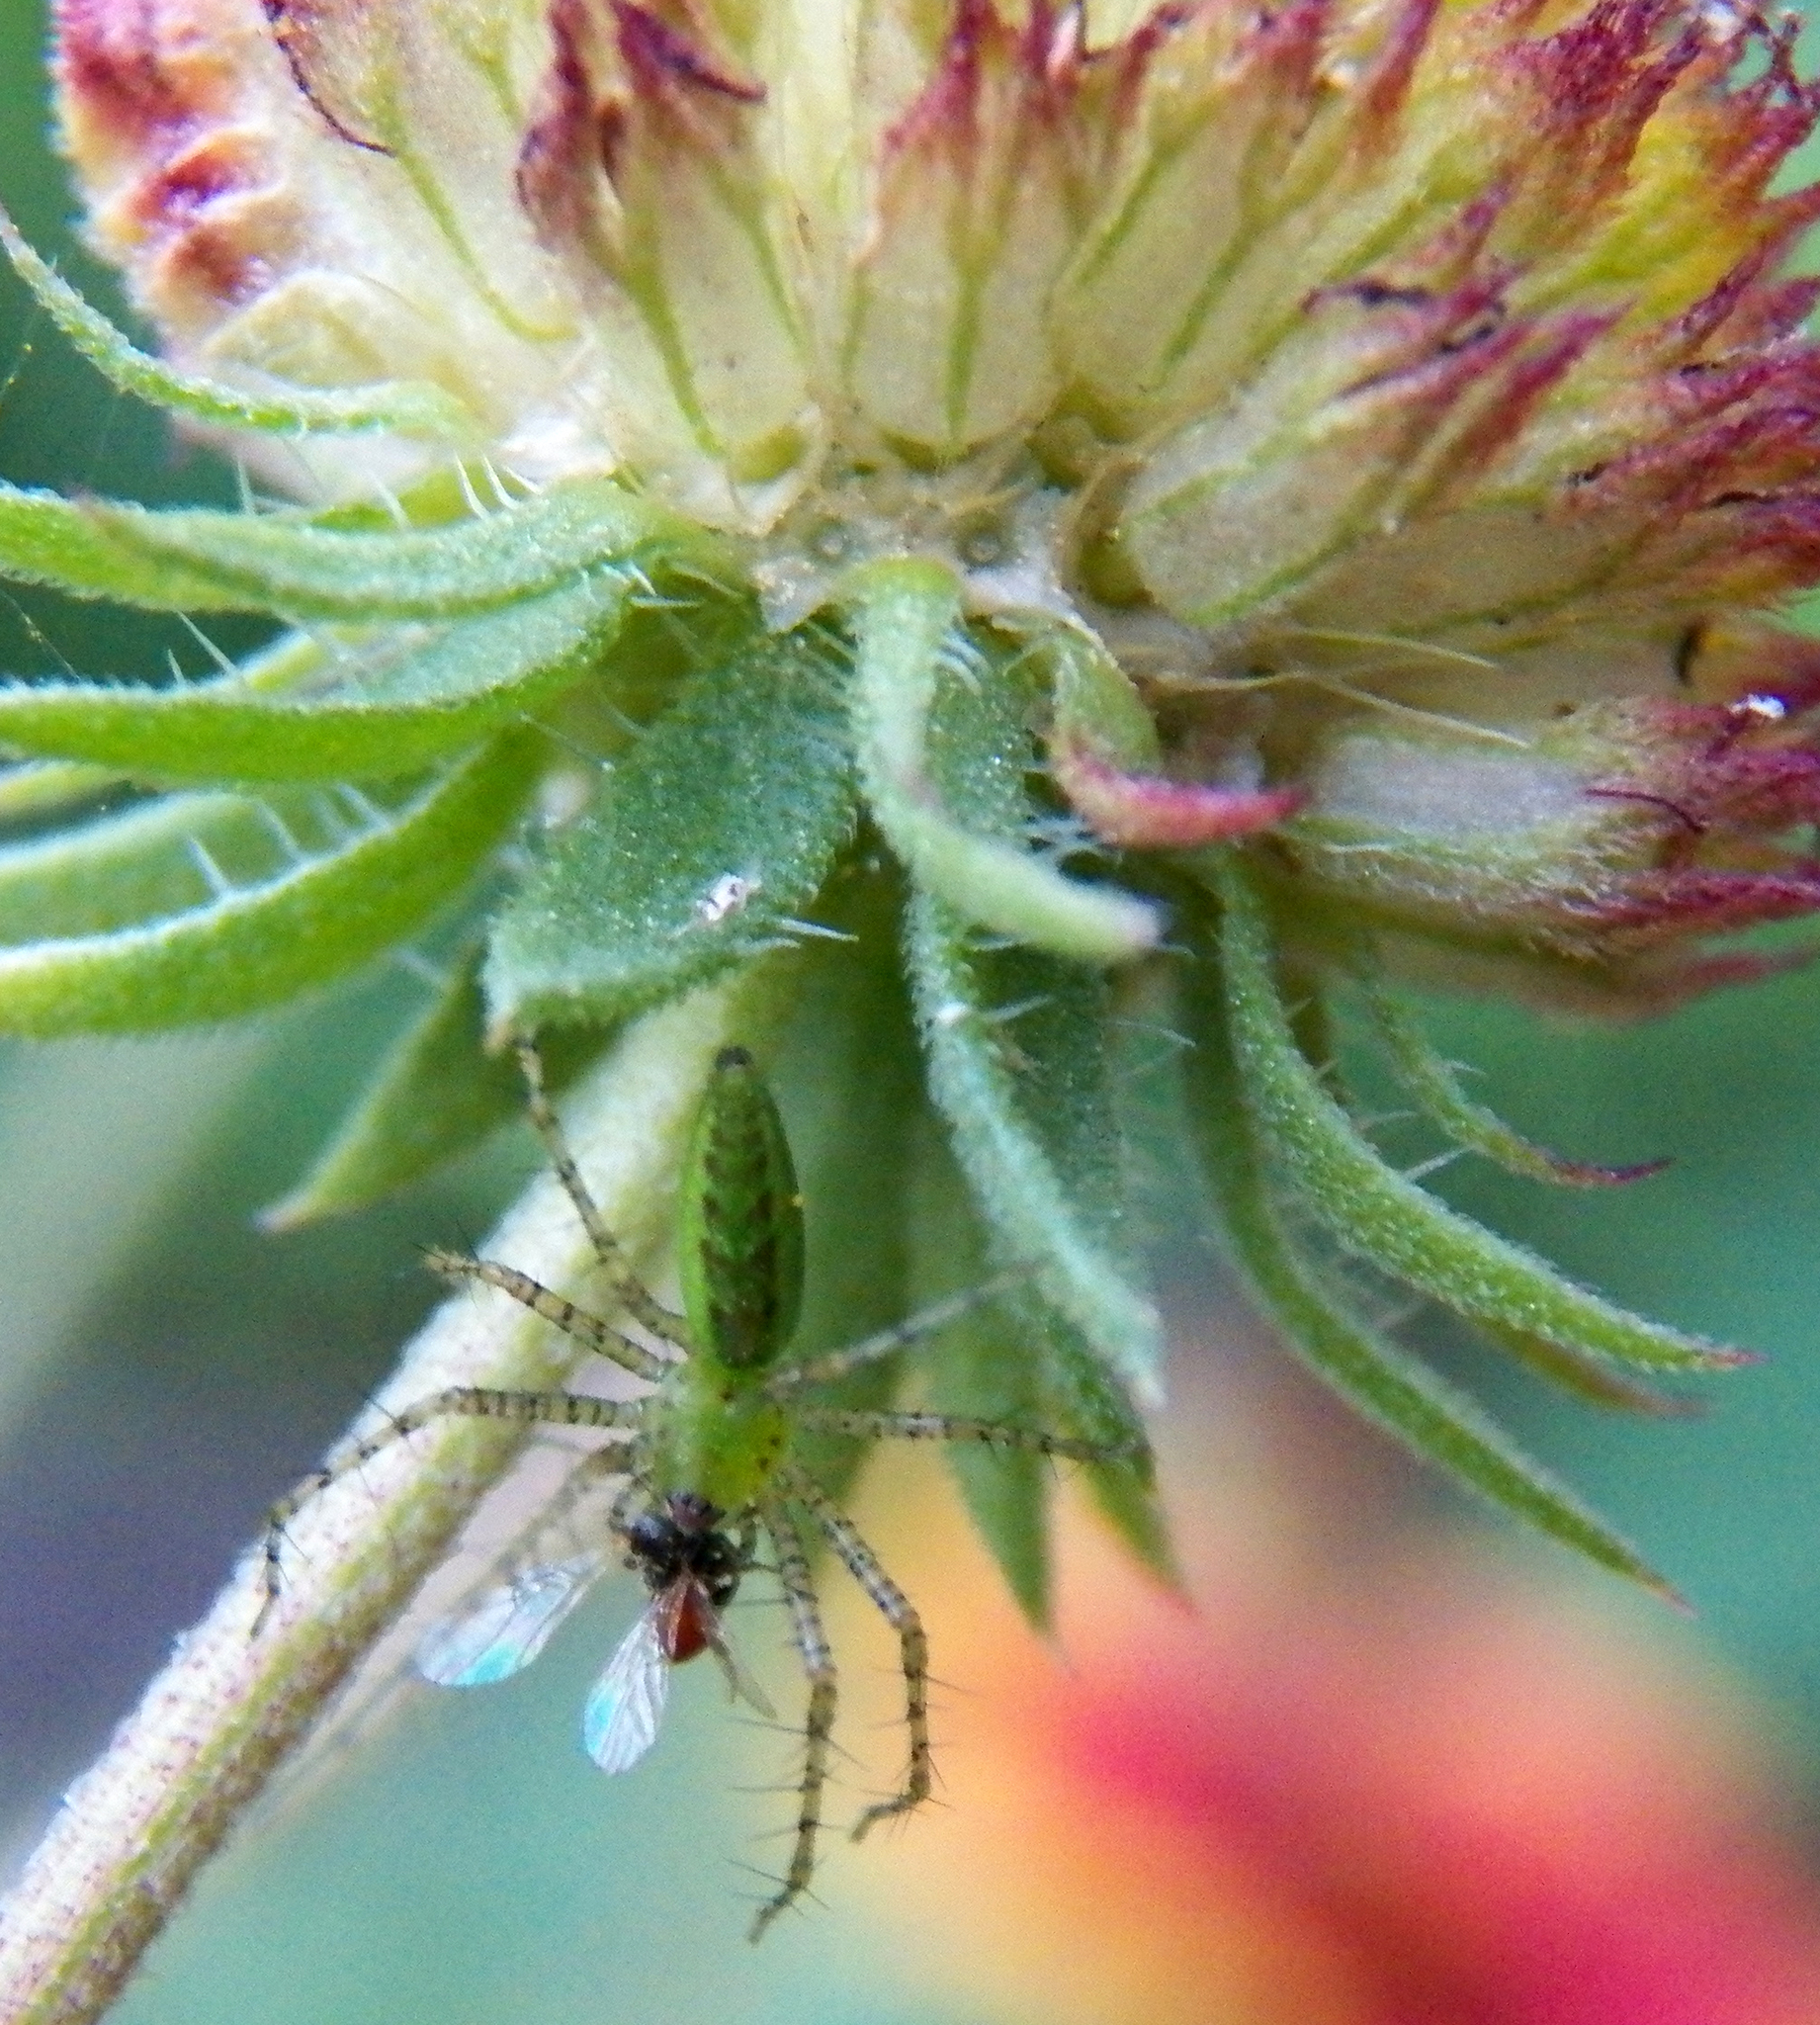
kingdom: Animalia
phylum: Arthropoda
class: Arachnida
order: Araneae
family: Oxyopidae
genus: Peucetia
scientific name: Peucetia viridans
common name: Lynx spiders
